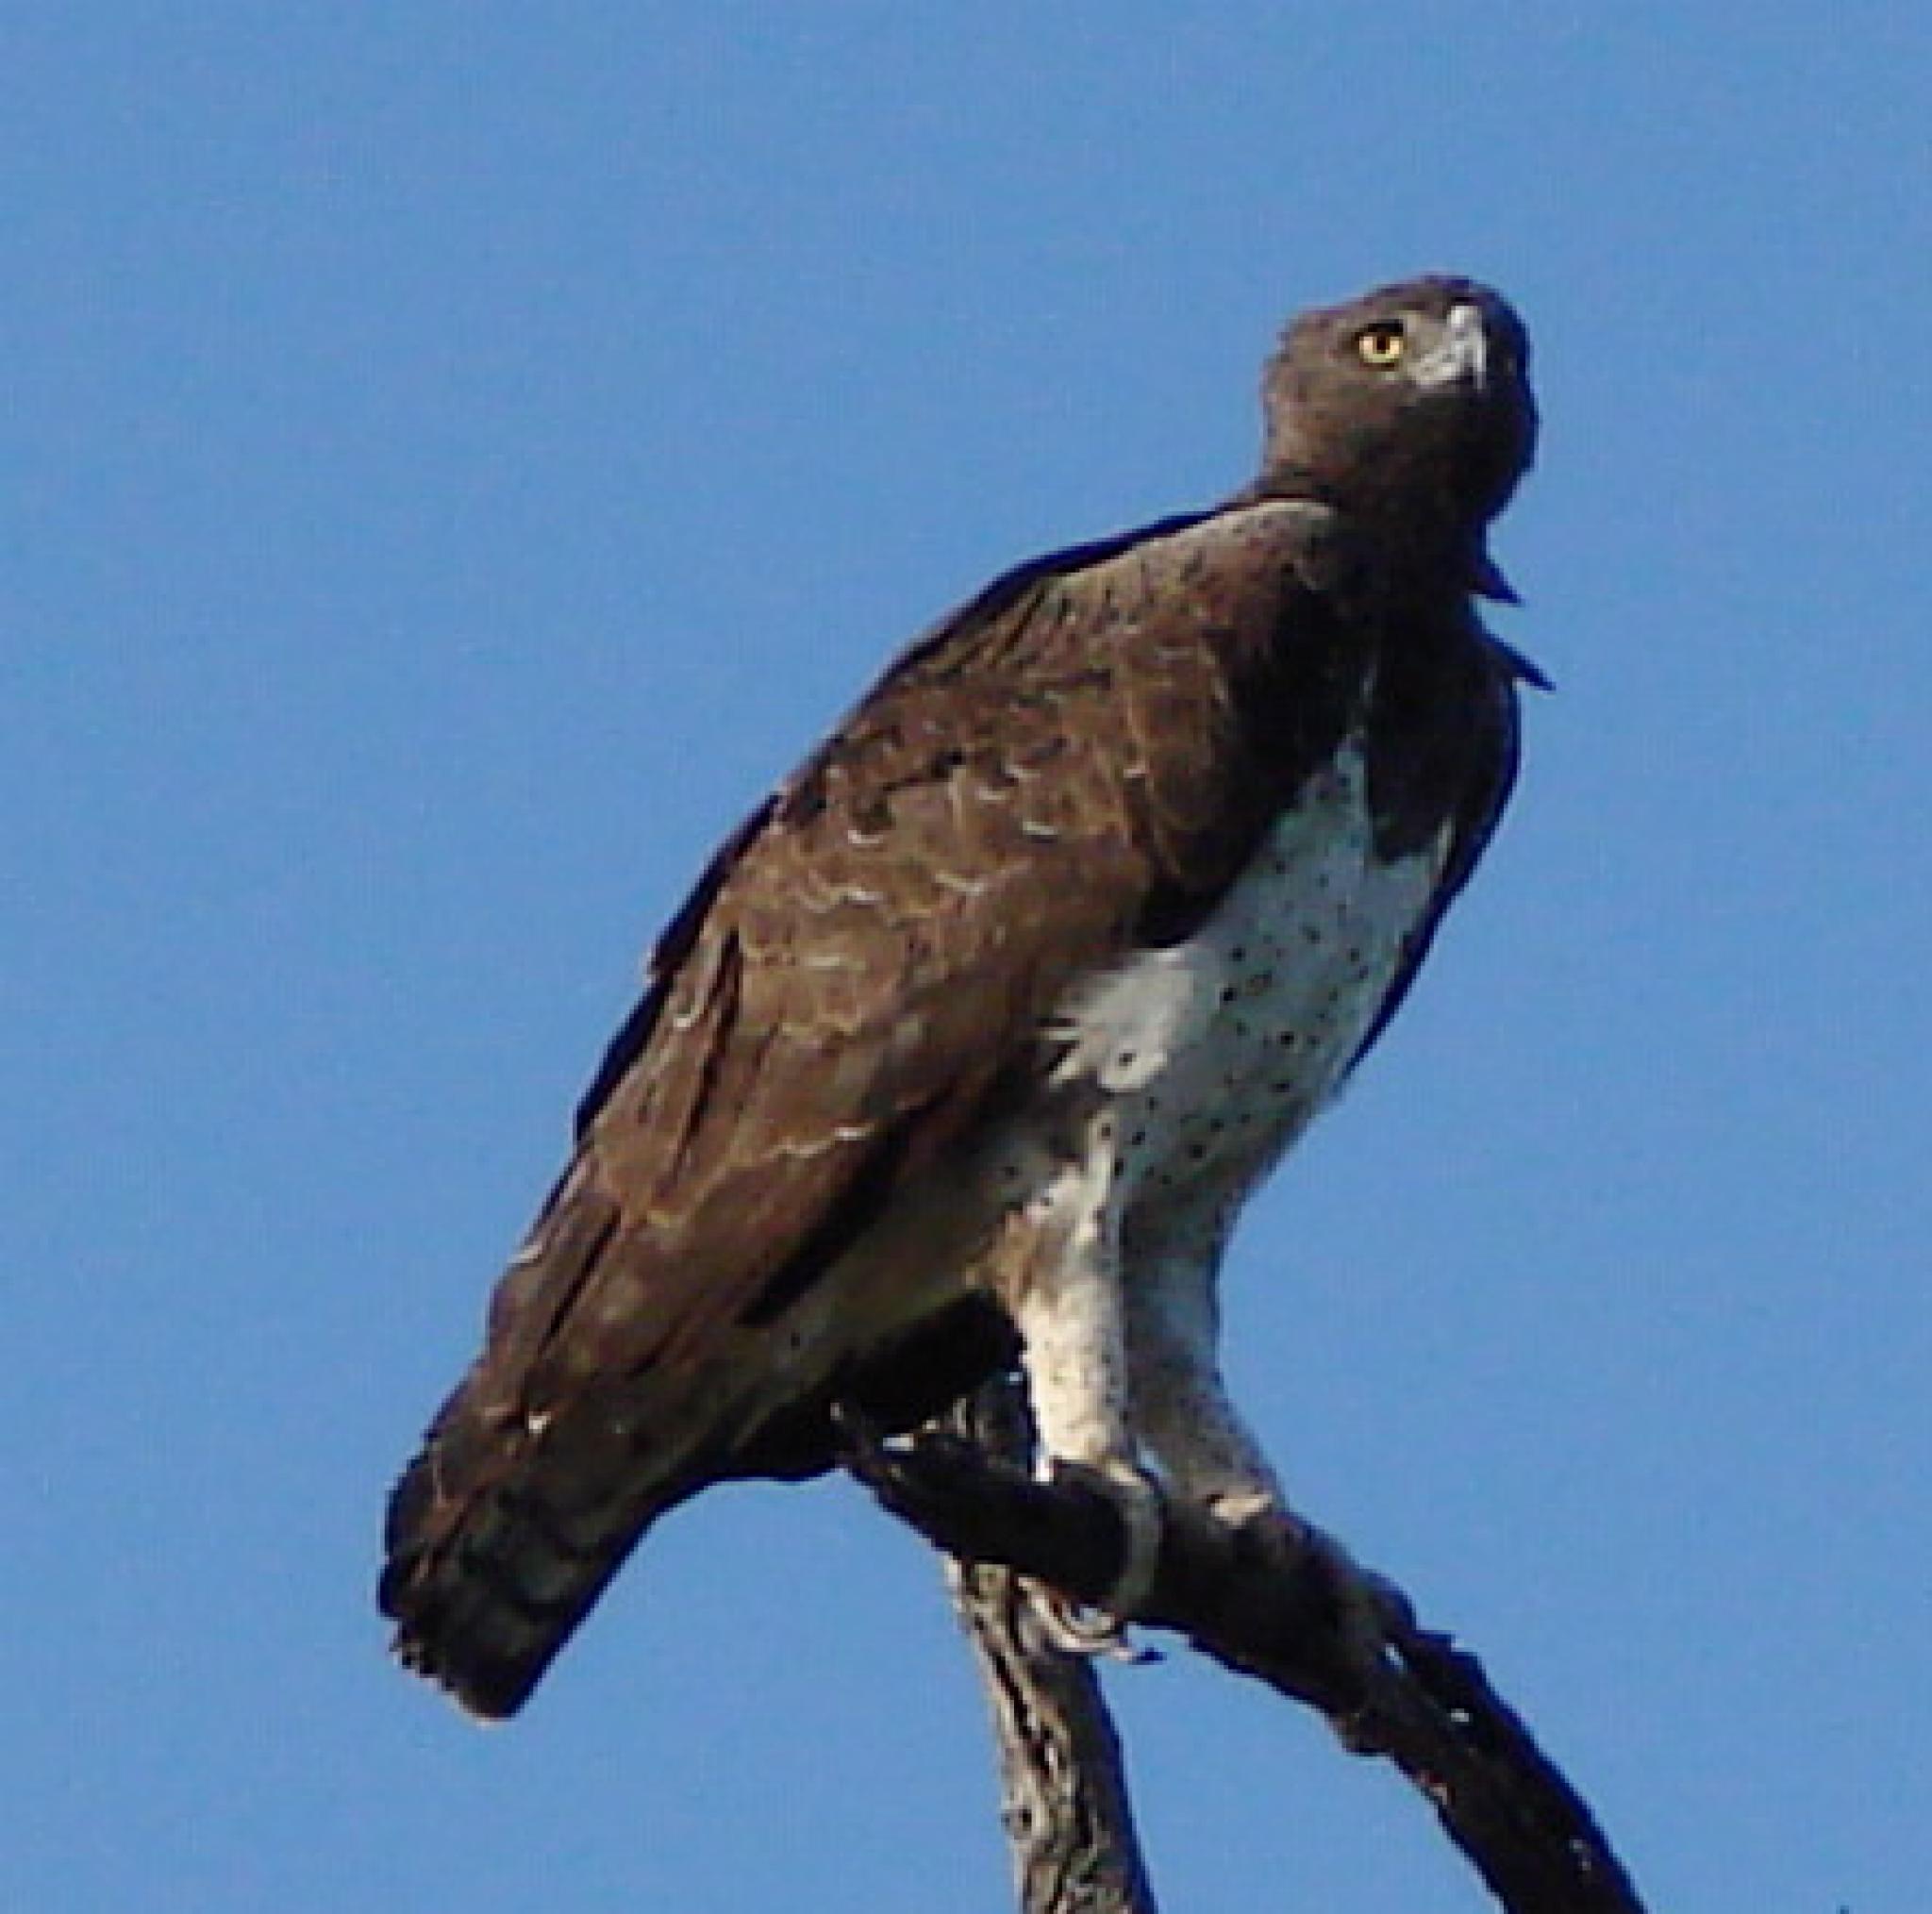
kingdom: Animalia
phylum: Chordata
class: Aves
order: Accipitriformes
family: Accipitridae
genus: Polemaetus
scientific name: Polemaetus bellicosus
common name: Martial eagle
